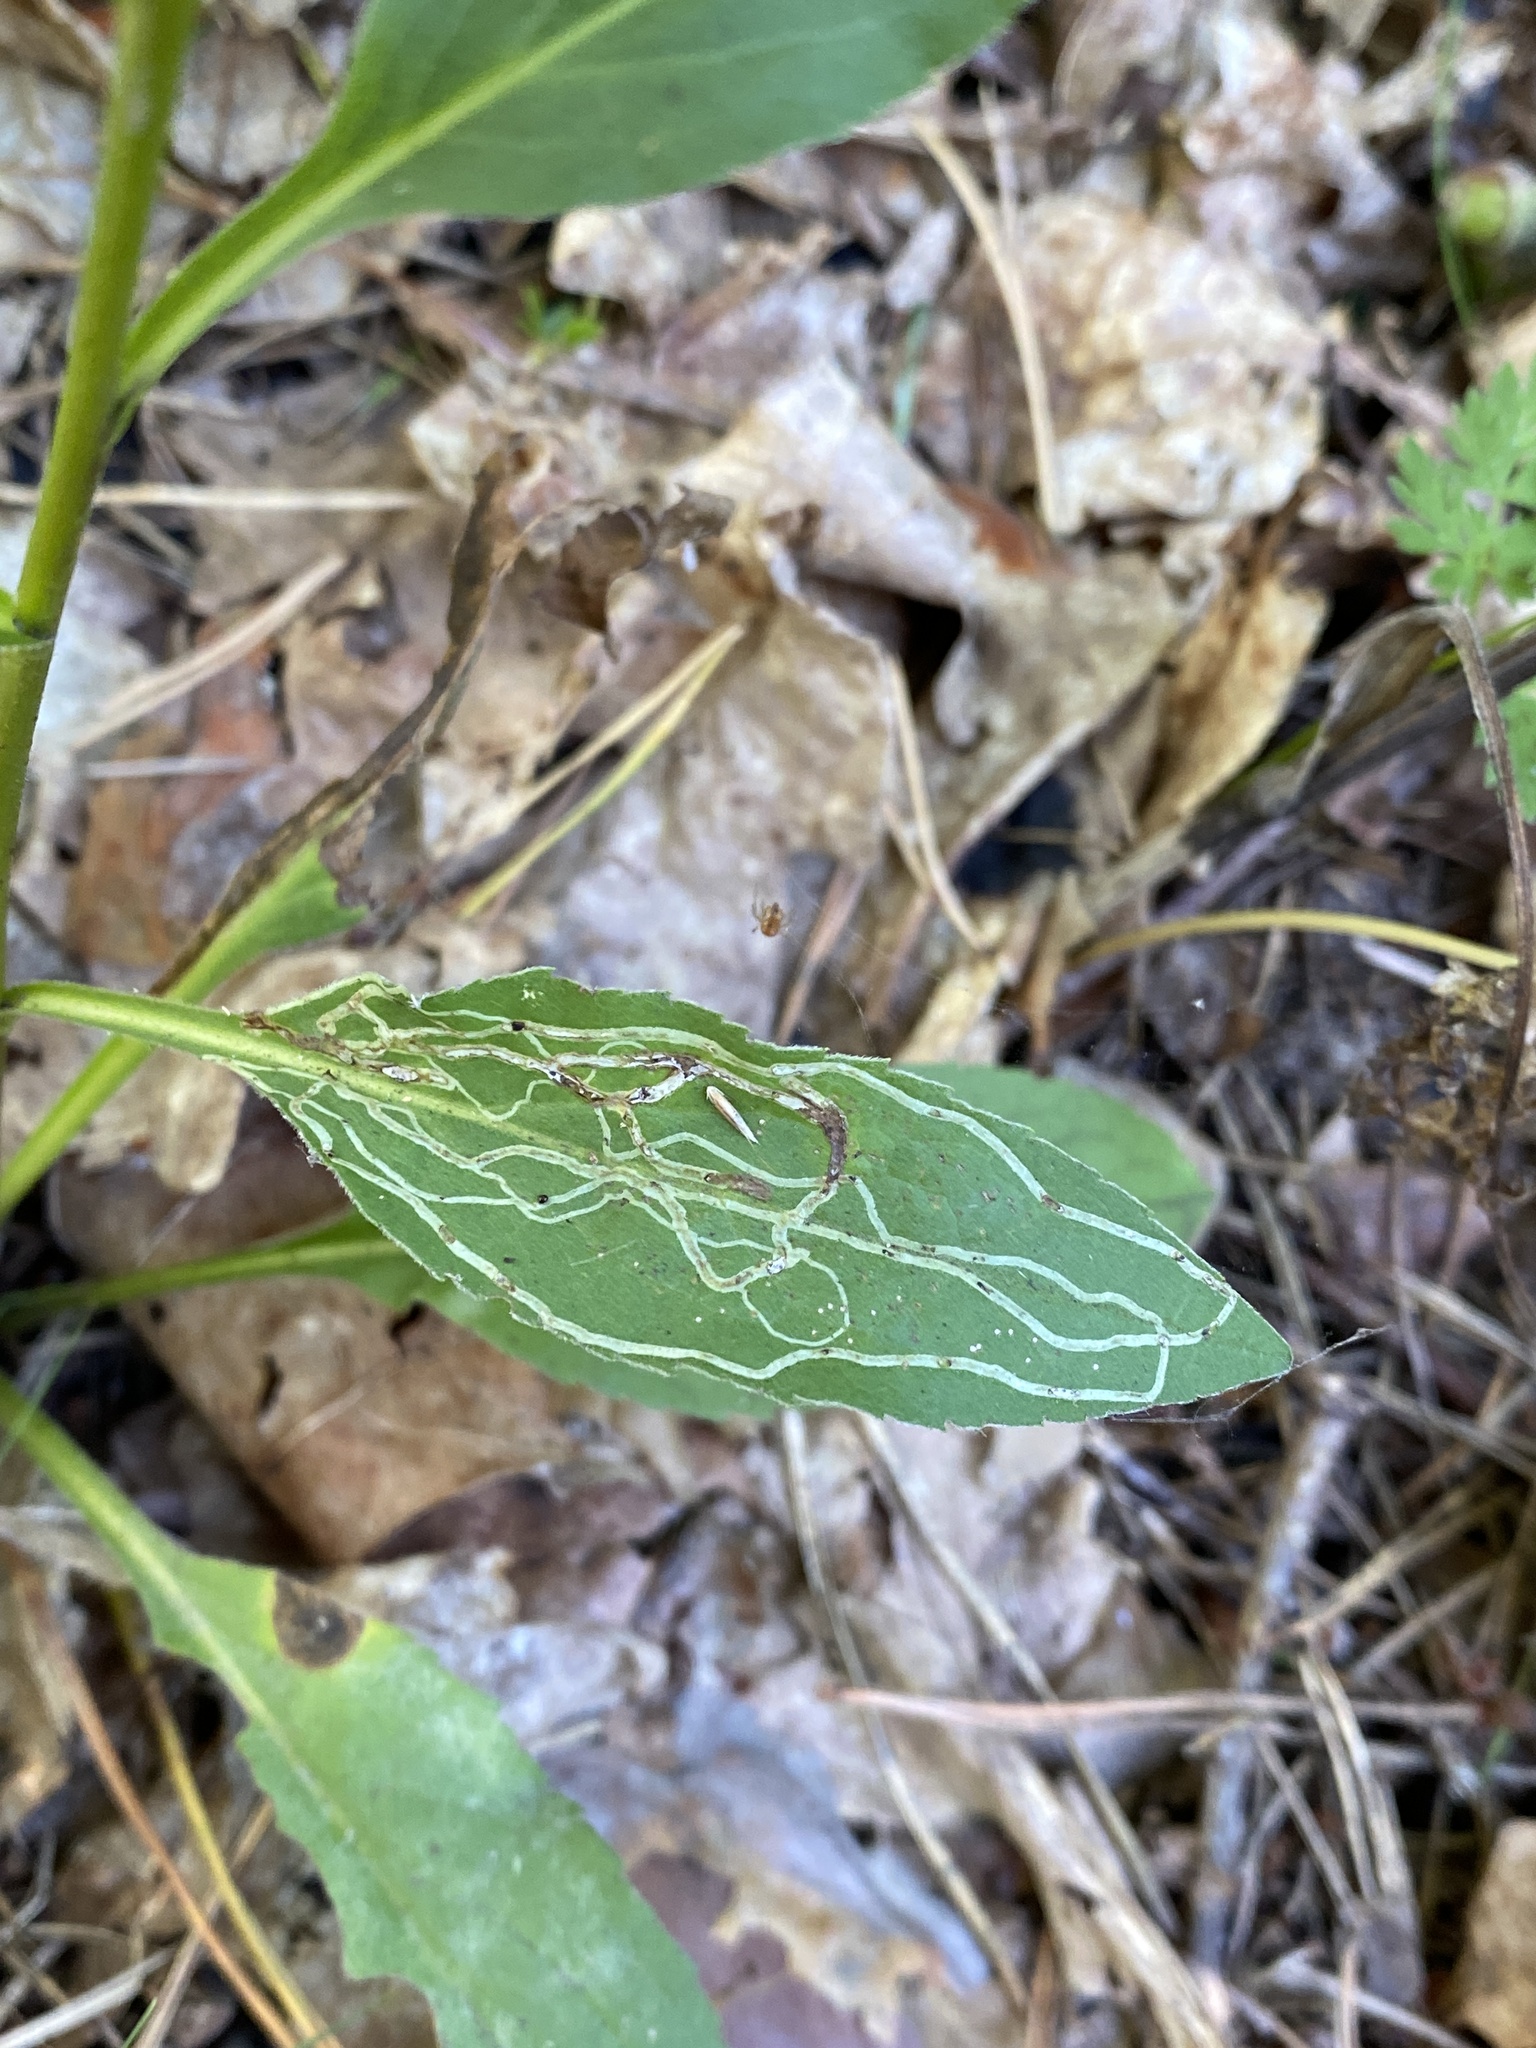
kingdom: Plantae
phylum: Tracheophyta
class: Magnoliopsida
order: Asterales
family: Asteraceae
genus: Solidago
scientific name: Solidago virgaurea
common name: Goldenrod
